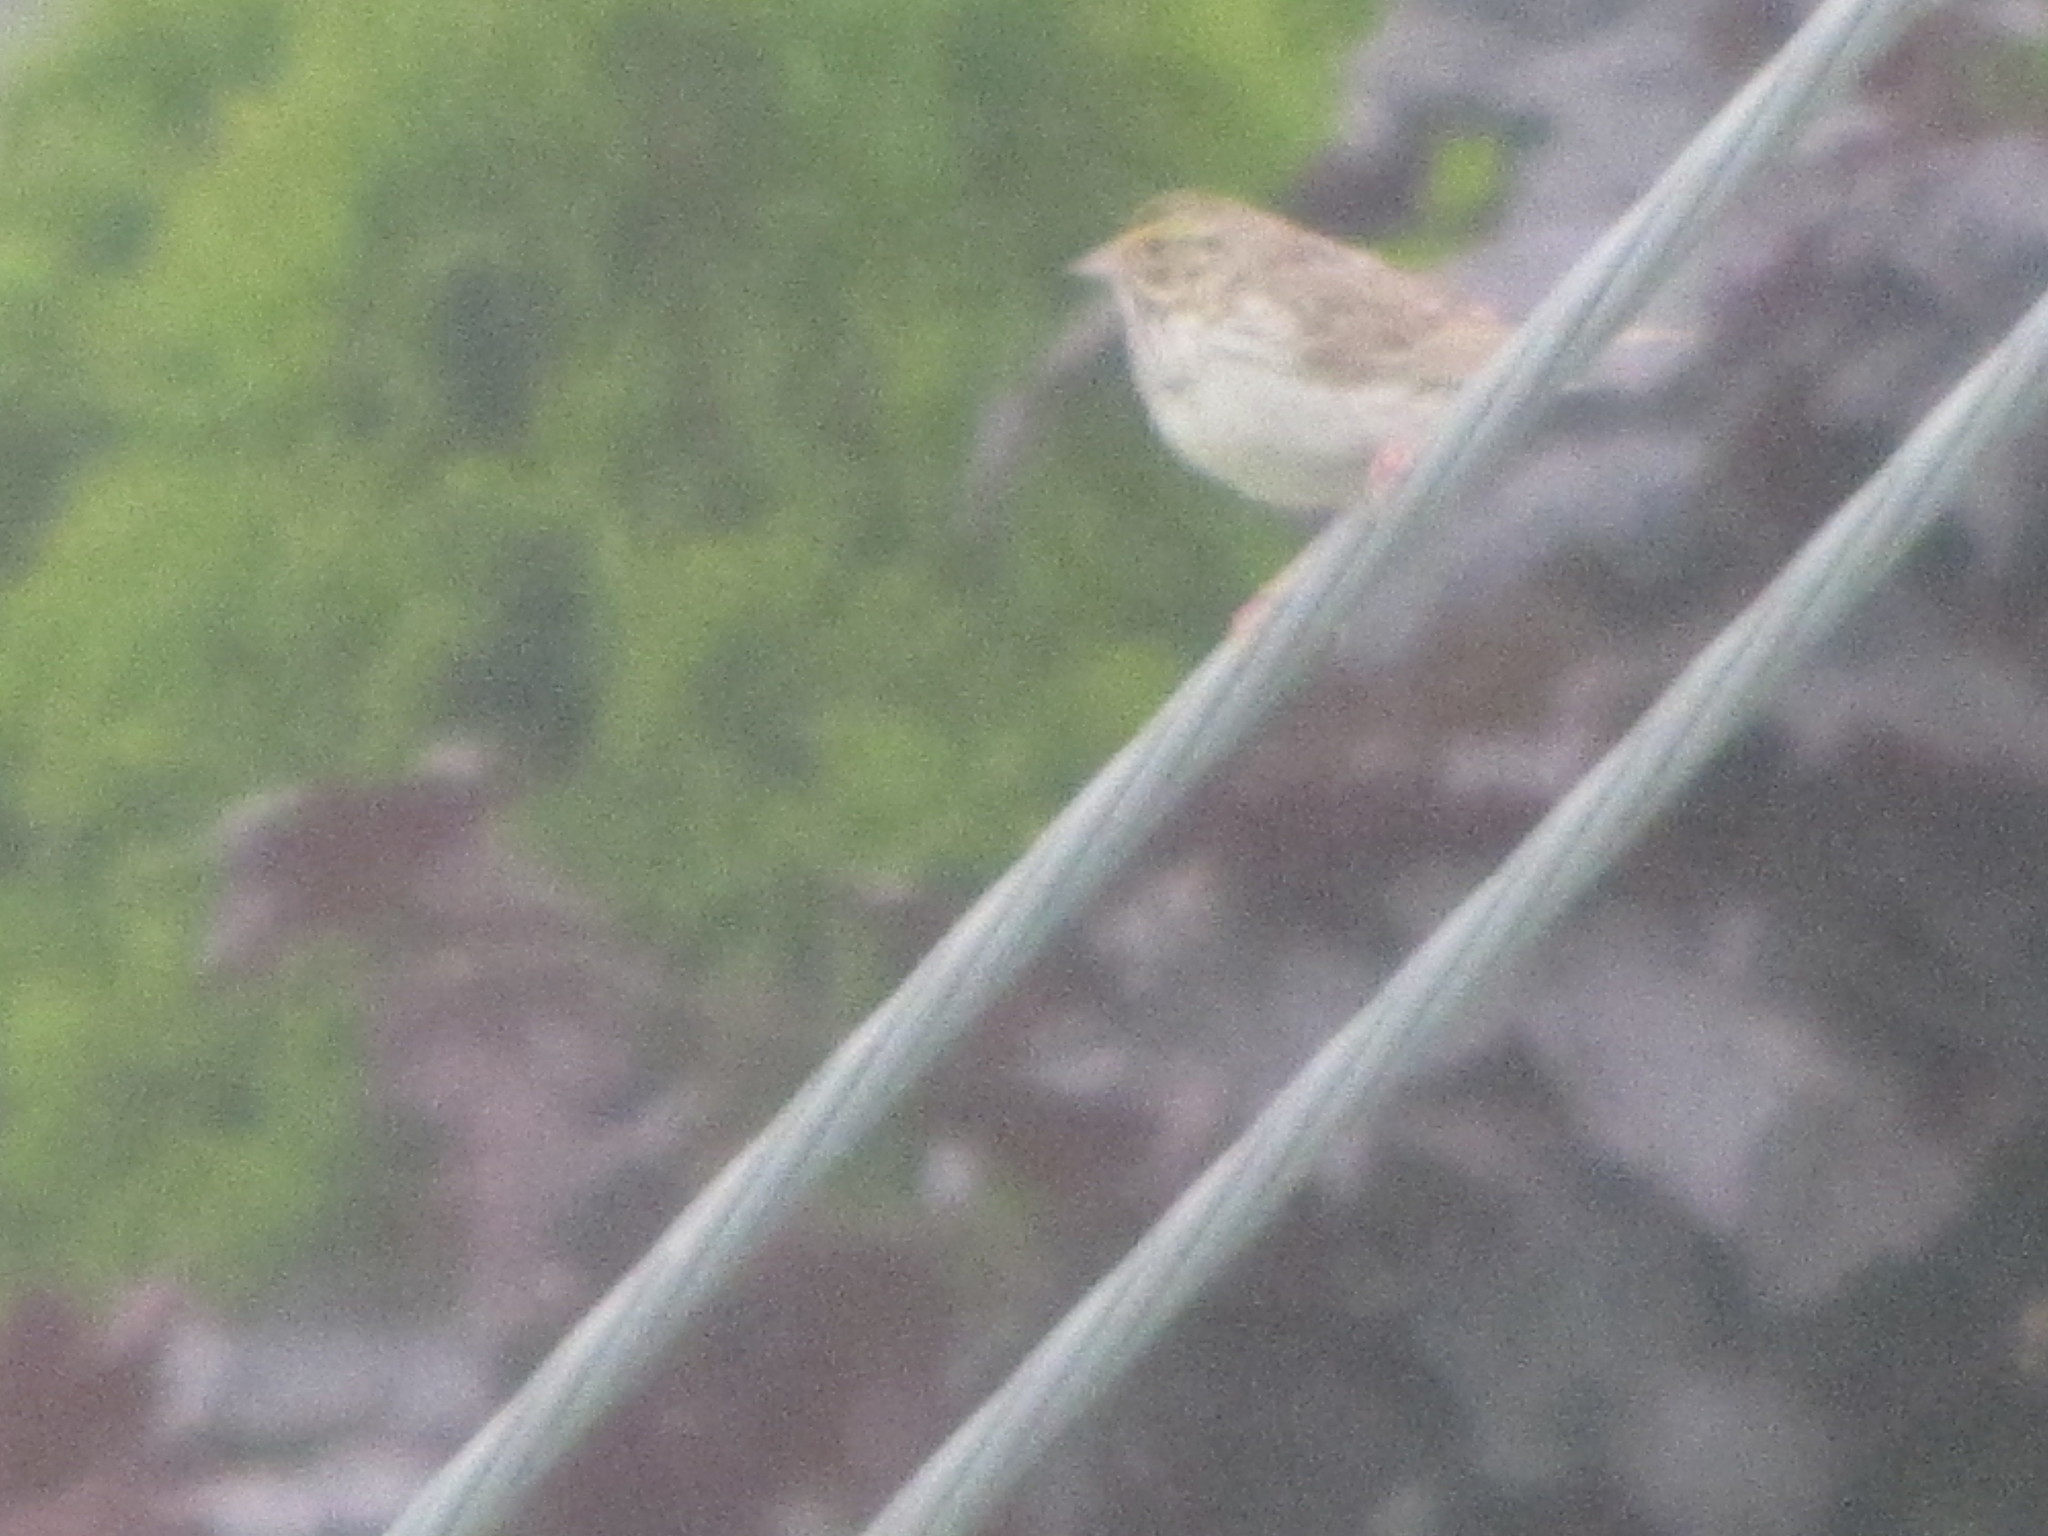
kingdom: Animalia
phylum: Chordata
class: Aves
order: Passeriformes
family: Passerellidae
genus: Passerculus
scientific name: Passerculus sandwichensis
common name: Savannah sparrow
